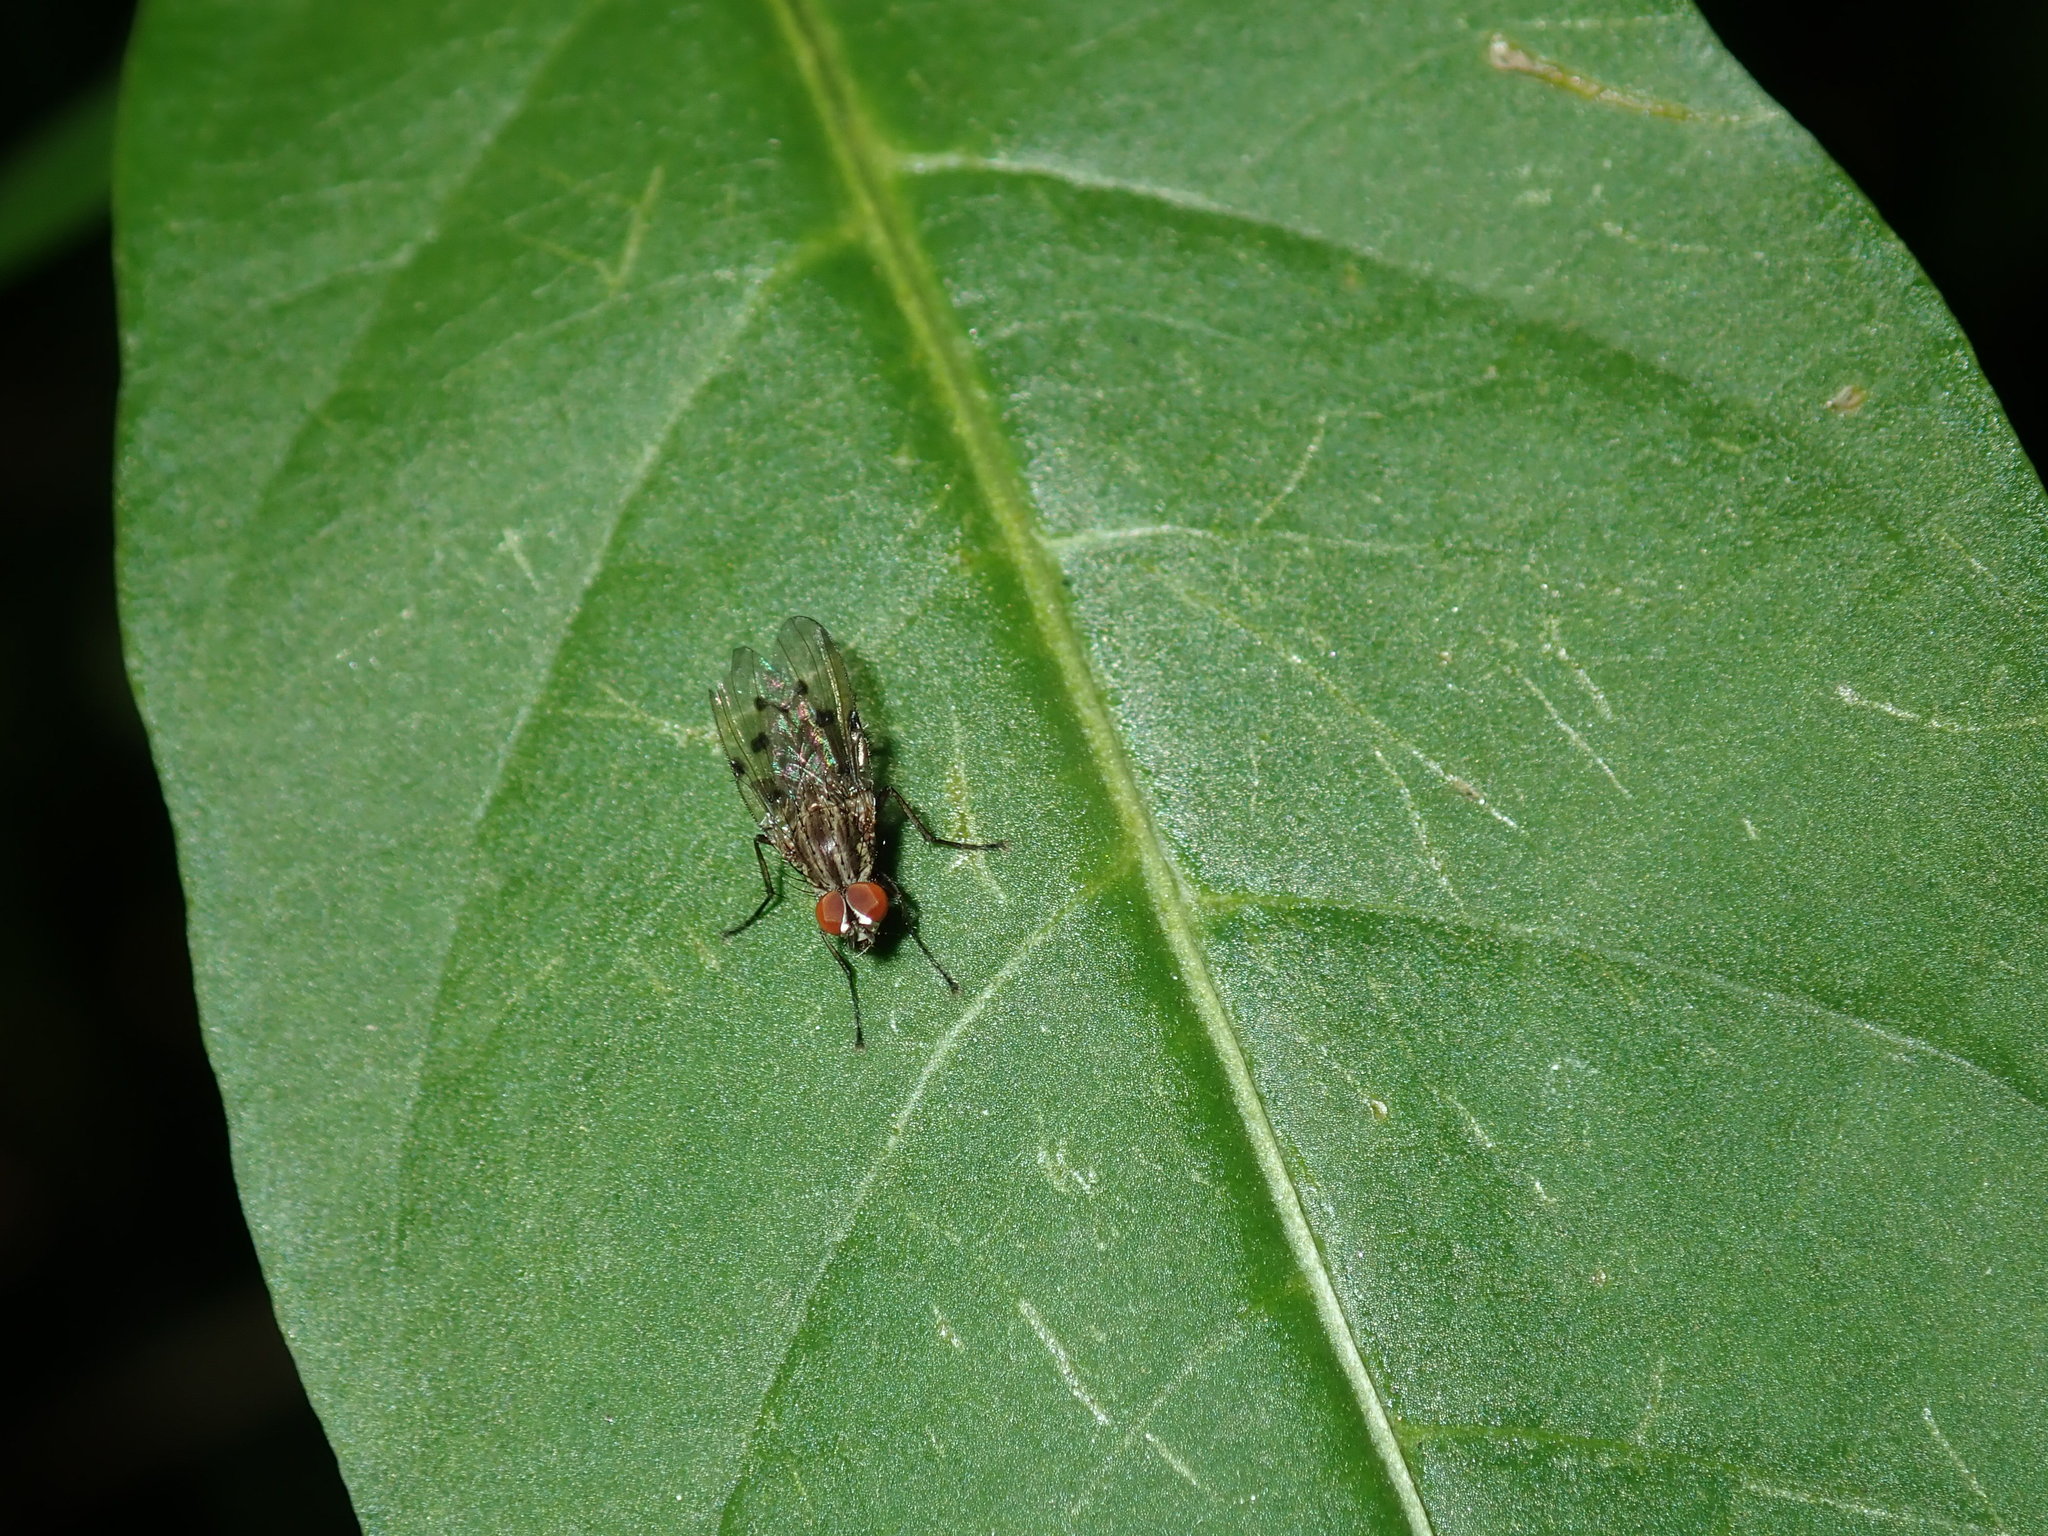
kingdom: Animalia
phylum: Arthropoda
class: Insecta
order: Diptera
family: Anthomyiidae
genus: Anthomyia
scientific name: Anthomyia punctipennis
